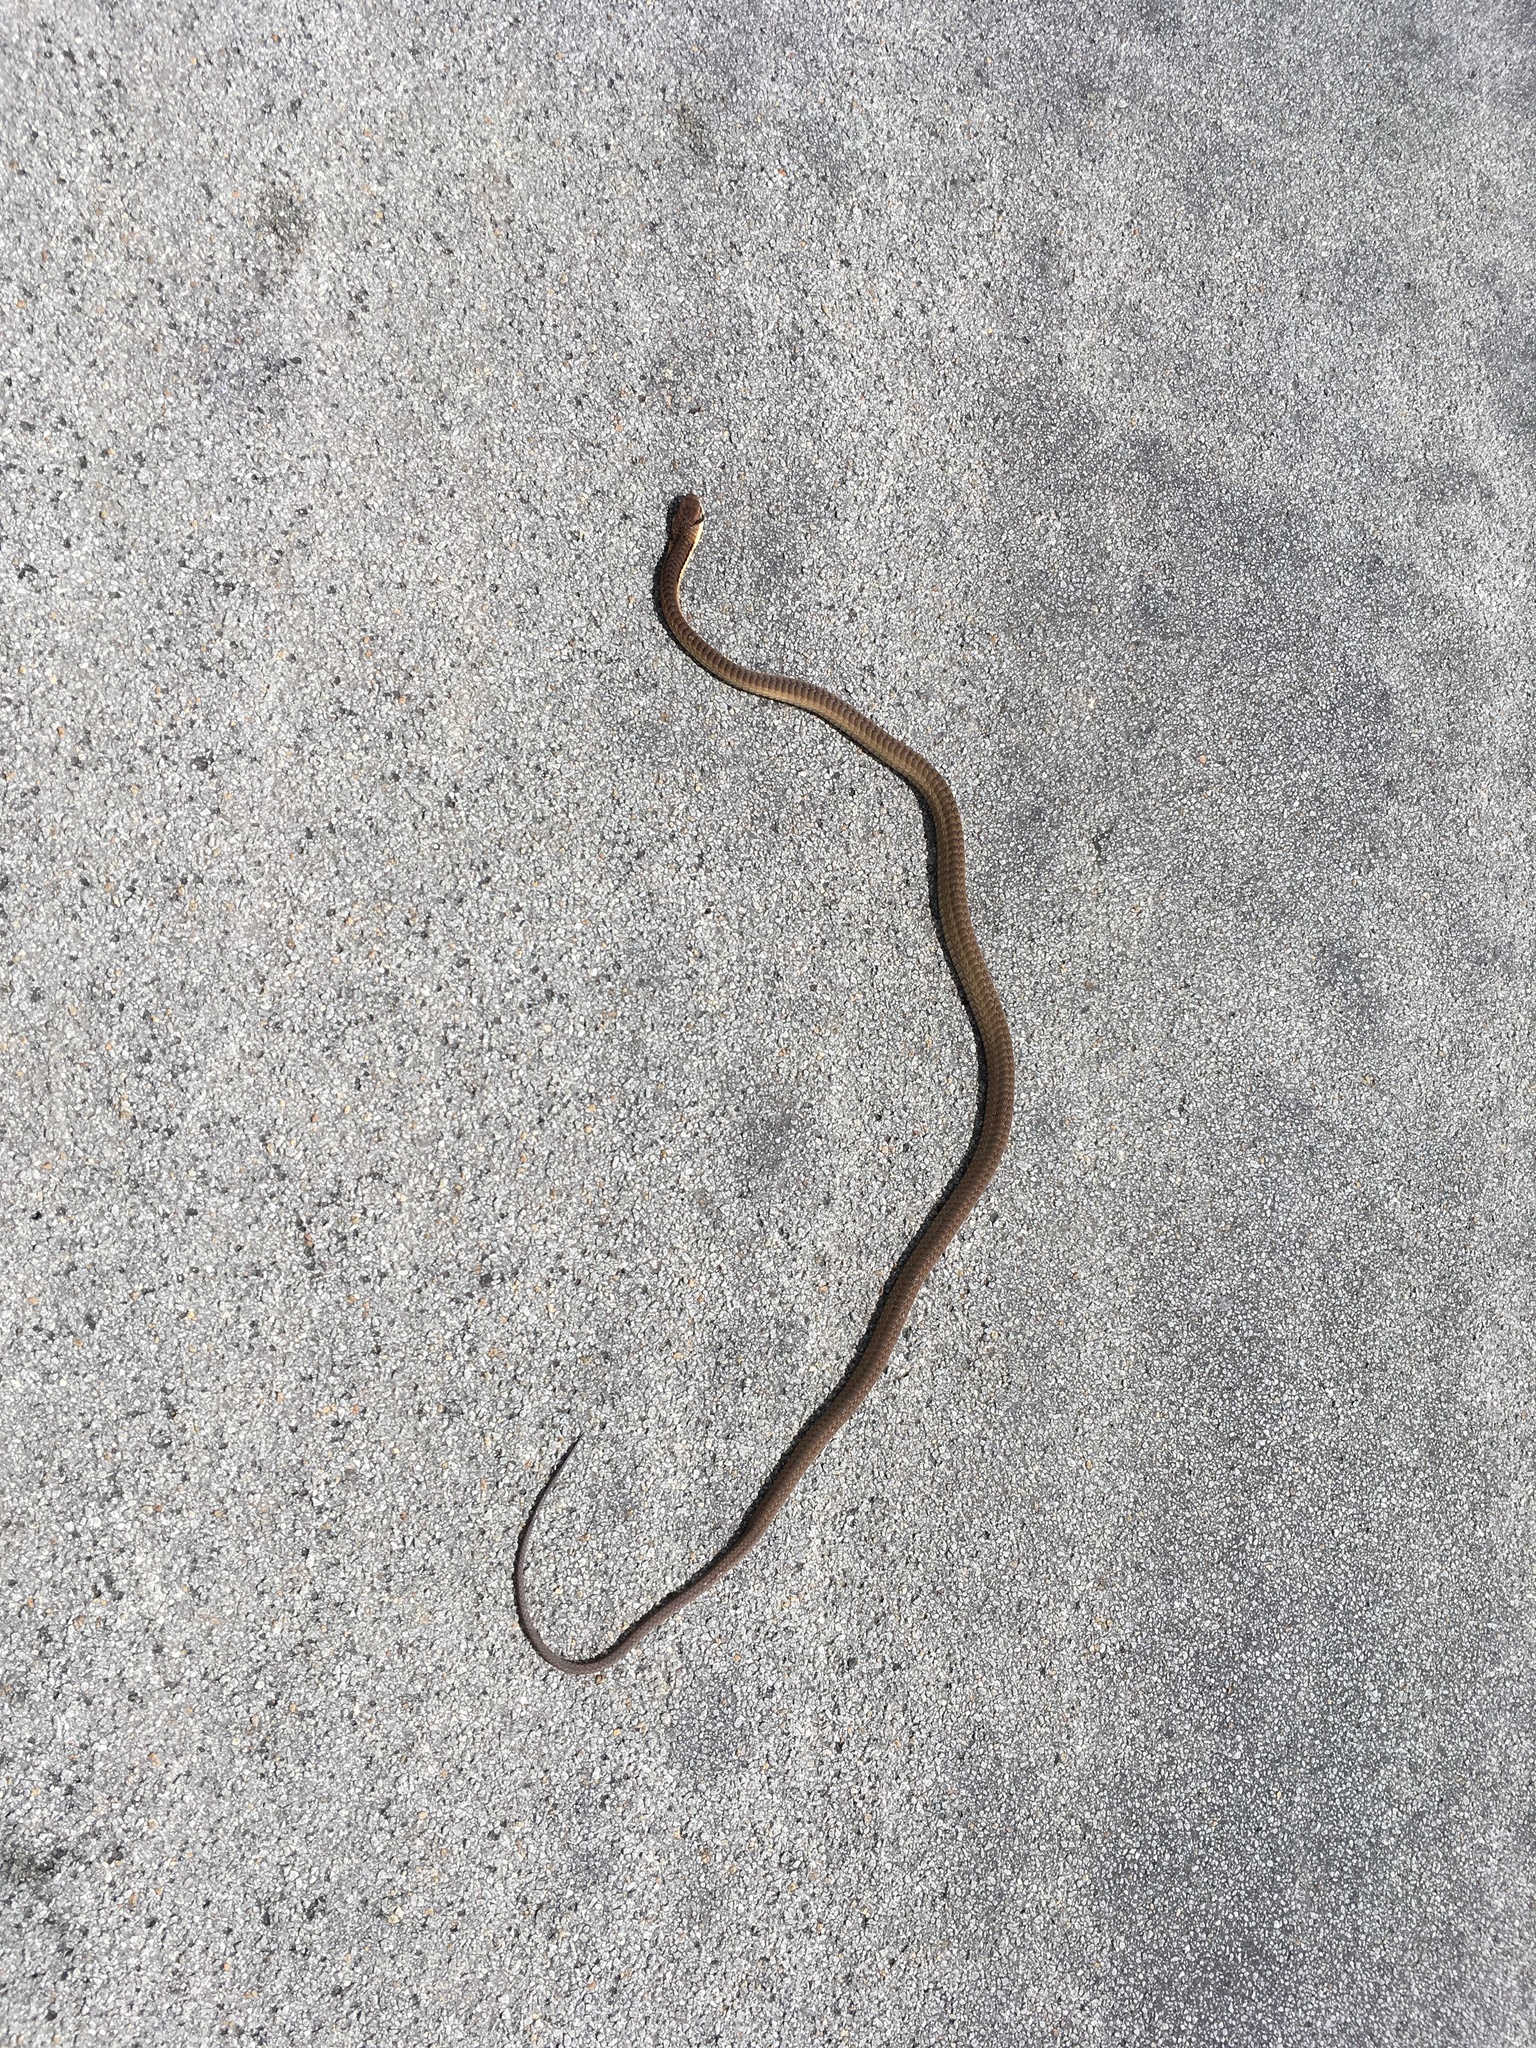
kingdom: Animalia
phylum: Chordata
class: Squamata
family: Colubridae
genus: Dispholidus
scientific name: Dispholidus typus
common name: Boomslang
